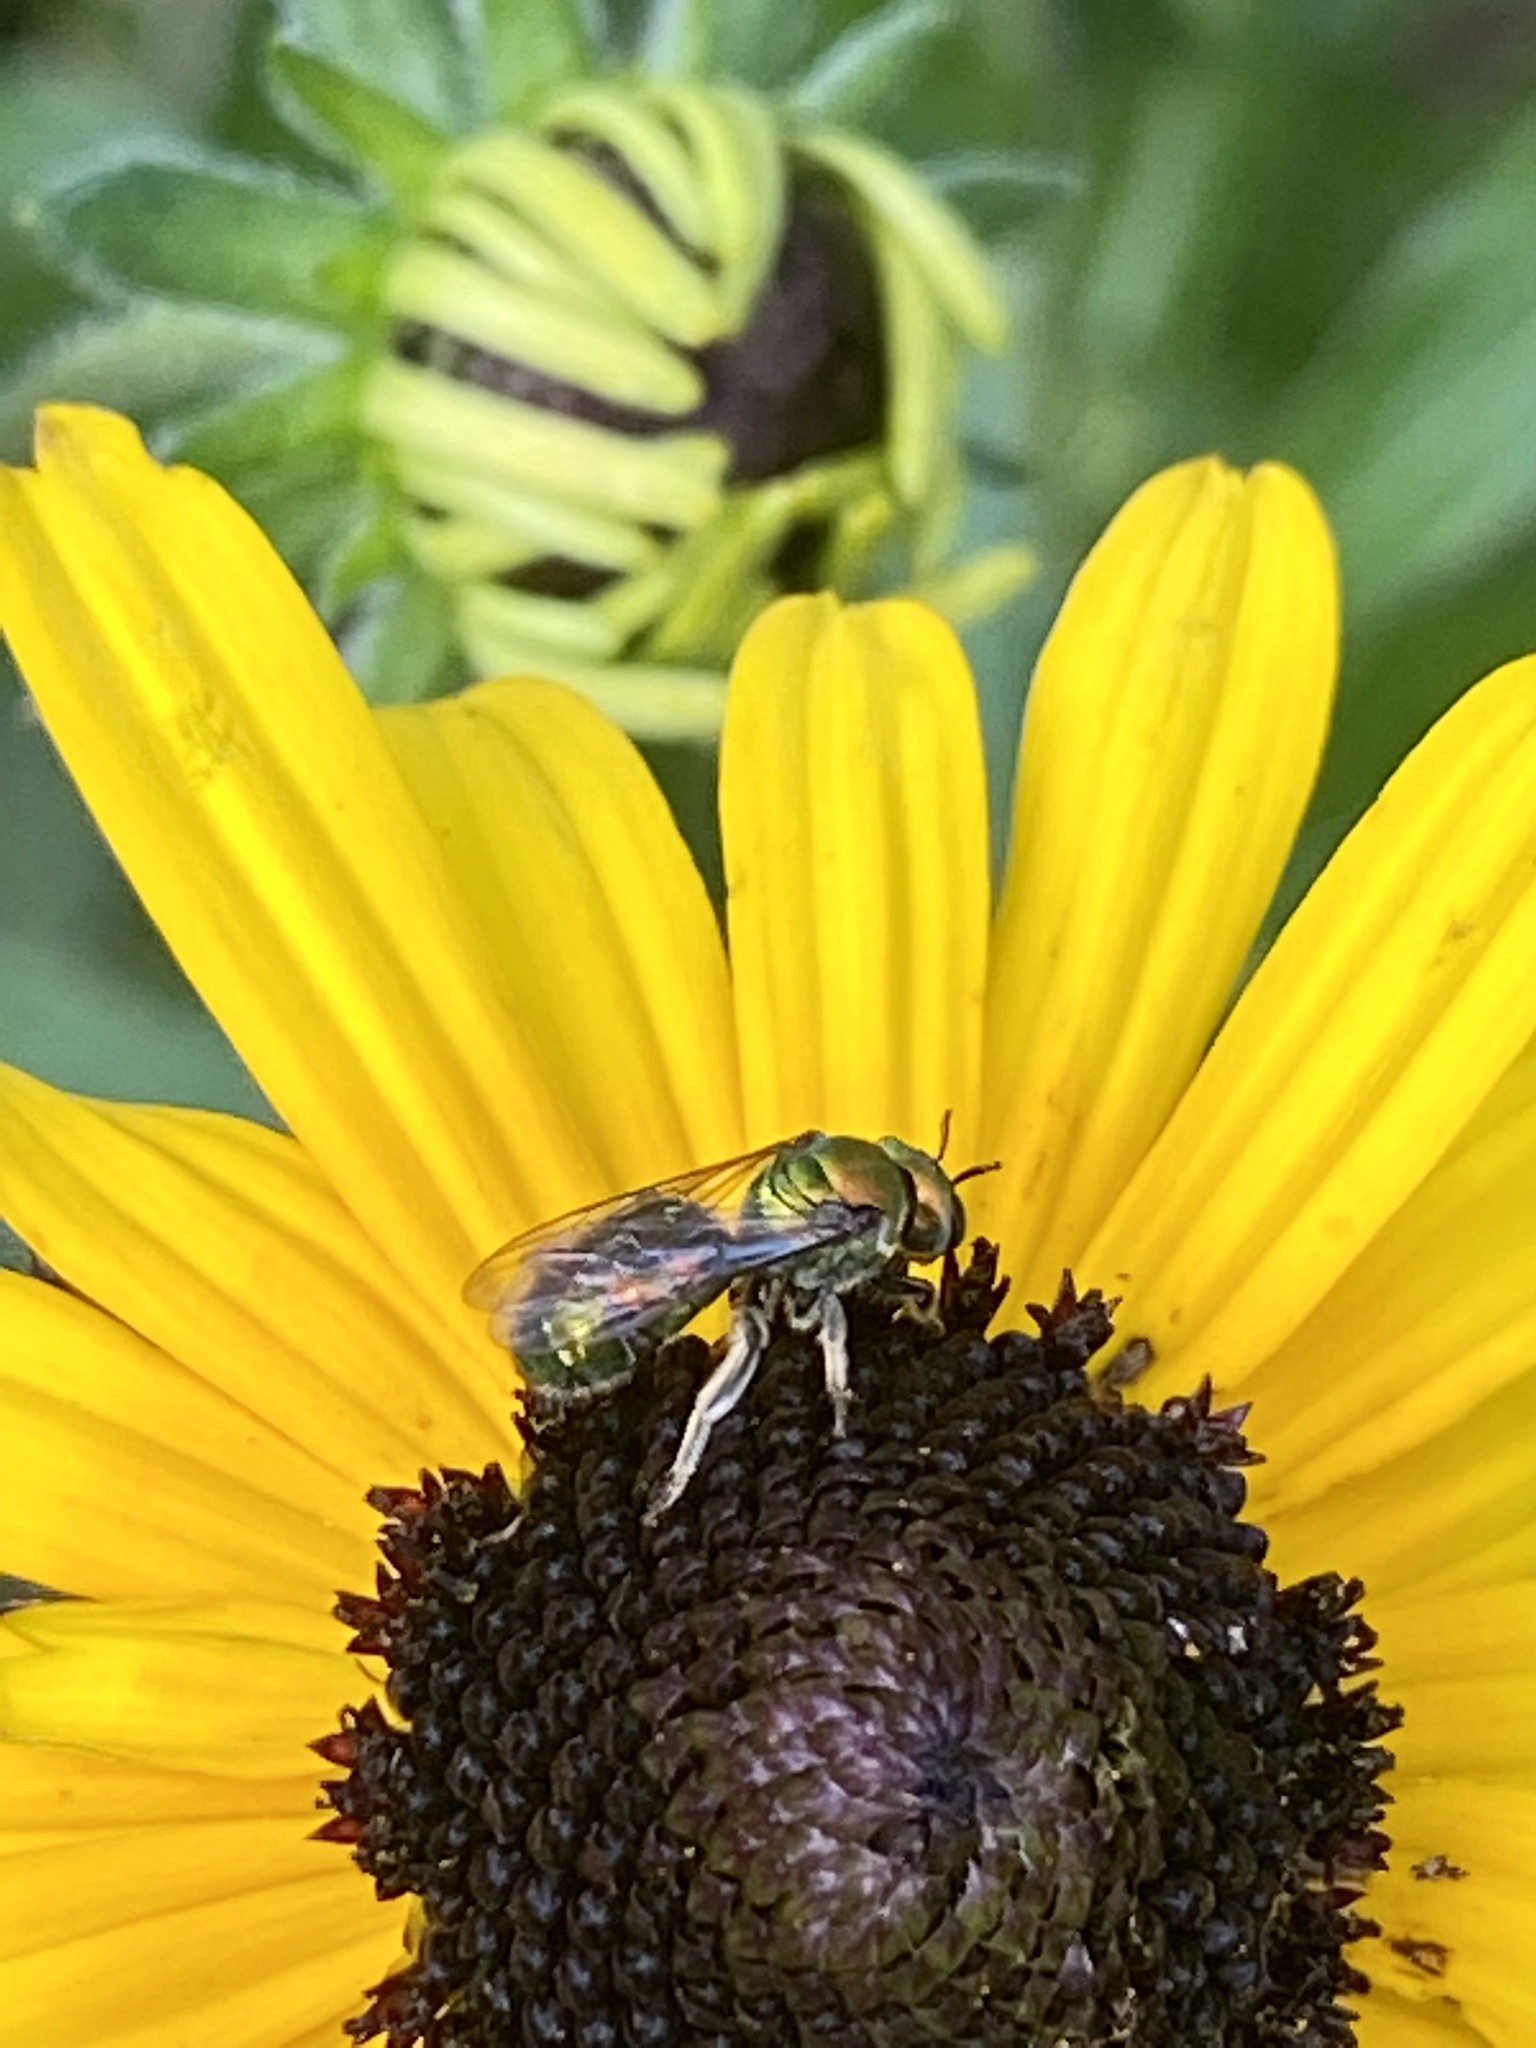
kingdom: Animalia
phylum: Arthropoda
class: Insecta
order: Hymenoptera
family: Halictidae
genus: Augochlora
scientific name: Augochlora pura
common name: Pure green sweat bee
